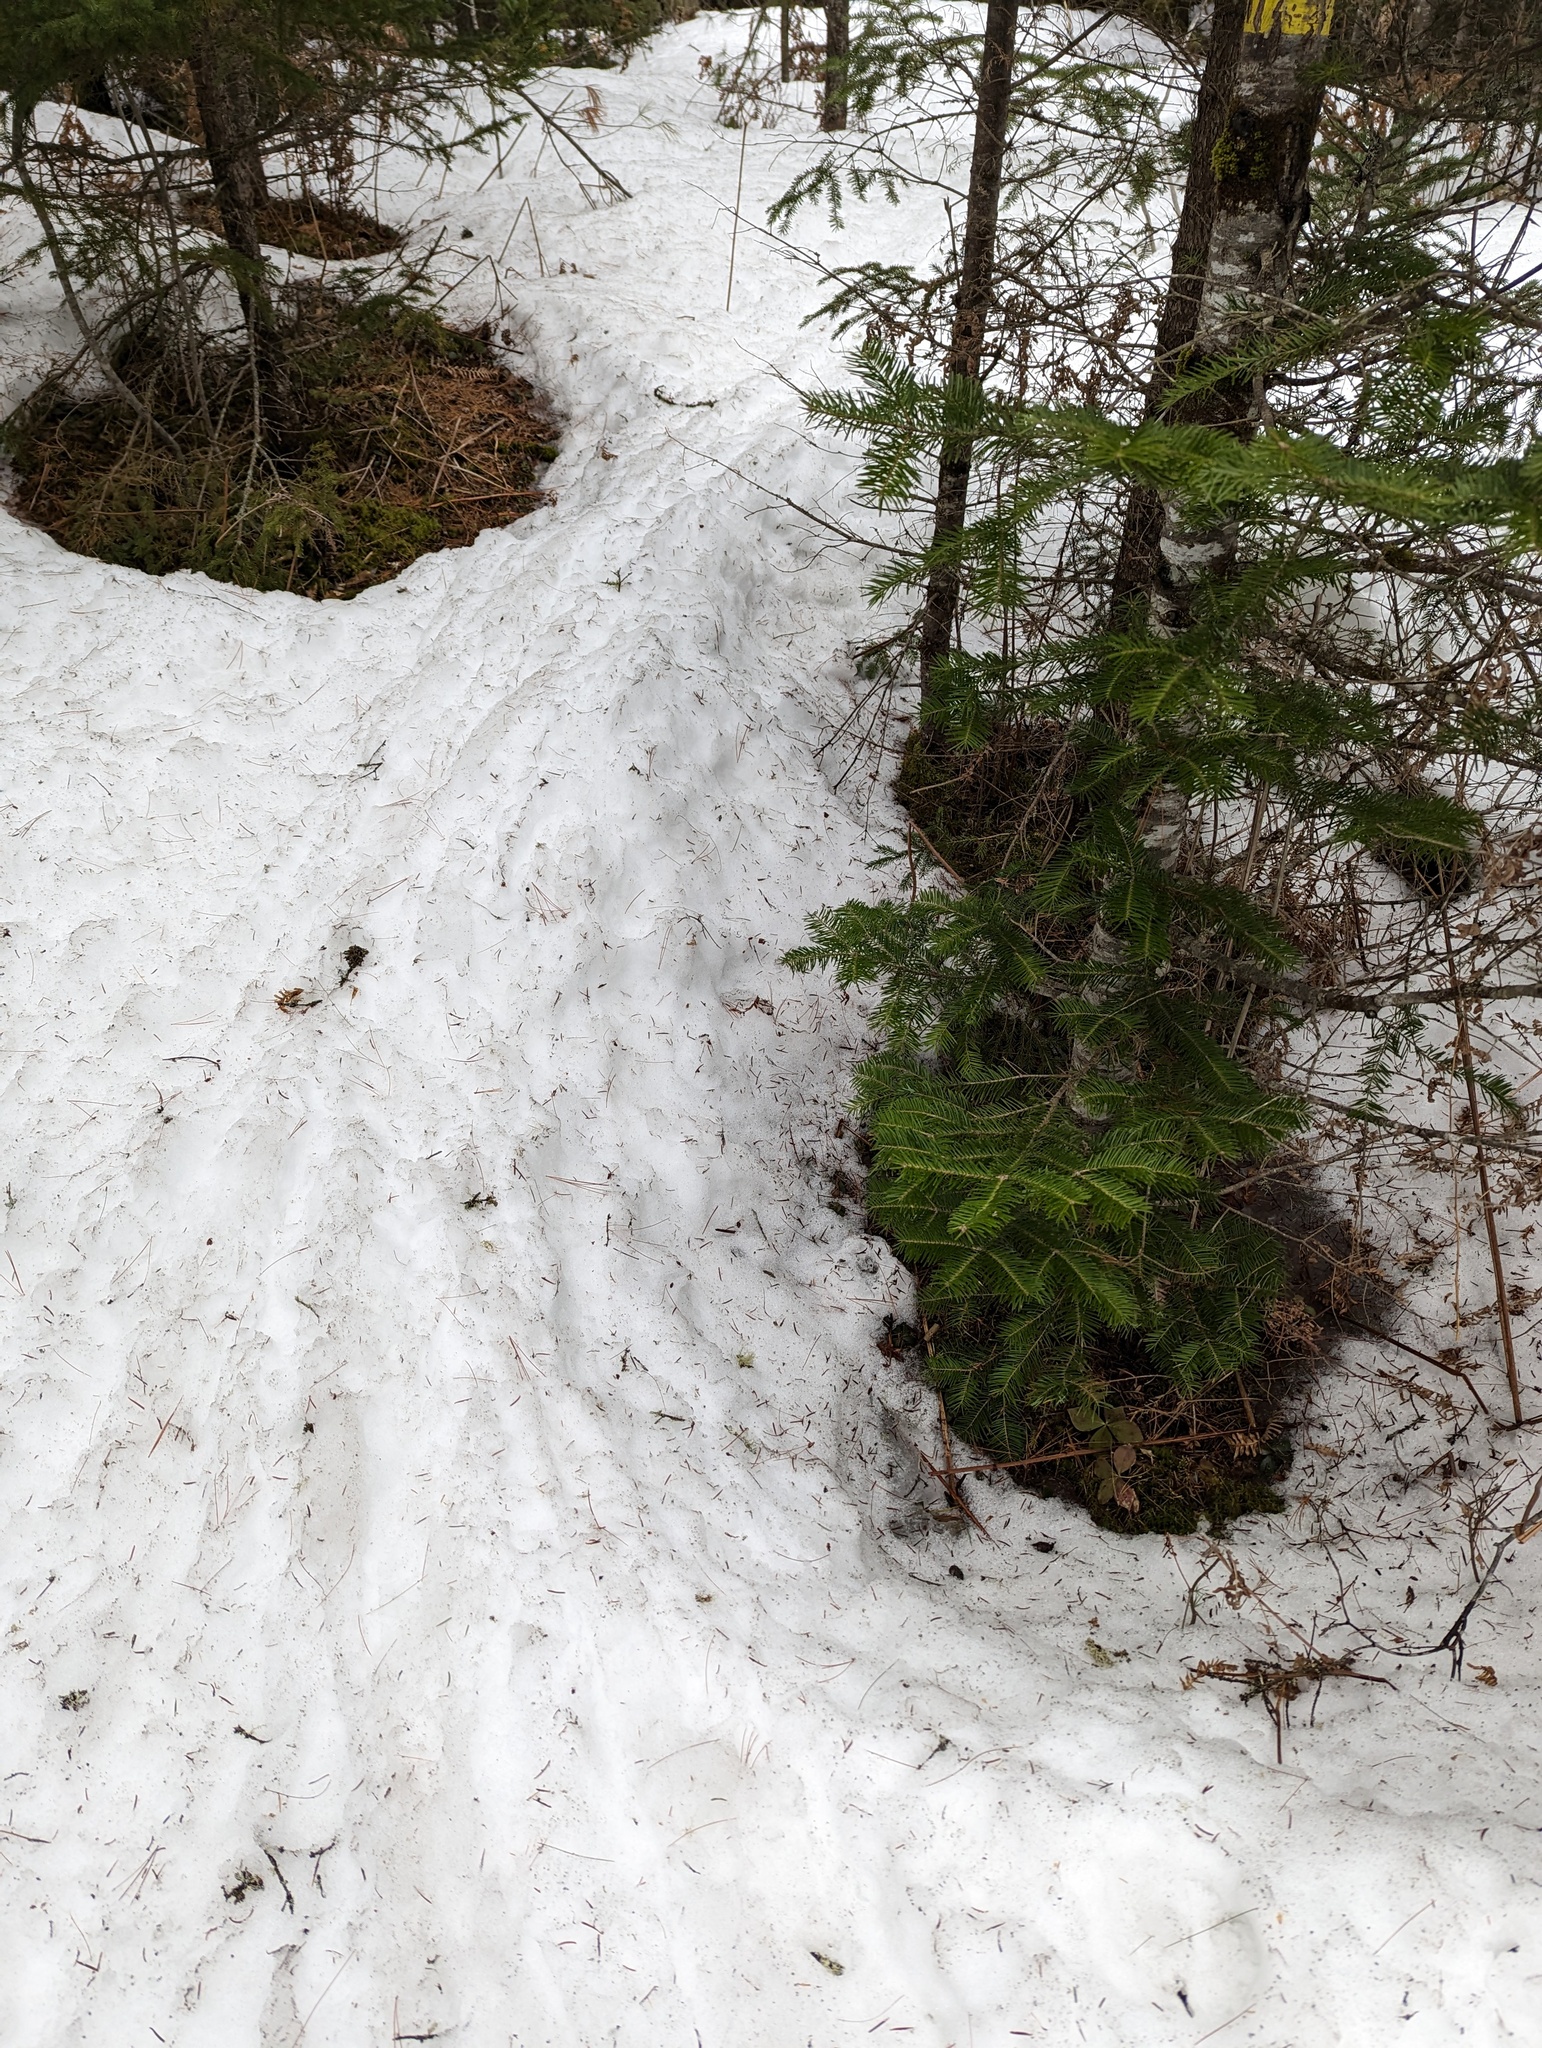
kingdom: Plantae
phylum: Tracheophyta
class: Pinopsida
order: Pinales
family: Pinaceae
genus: Abies
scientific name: Abies balsamea
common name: Balsam fir
